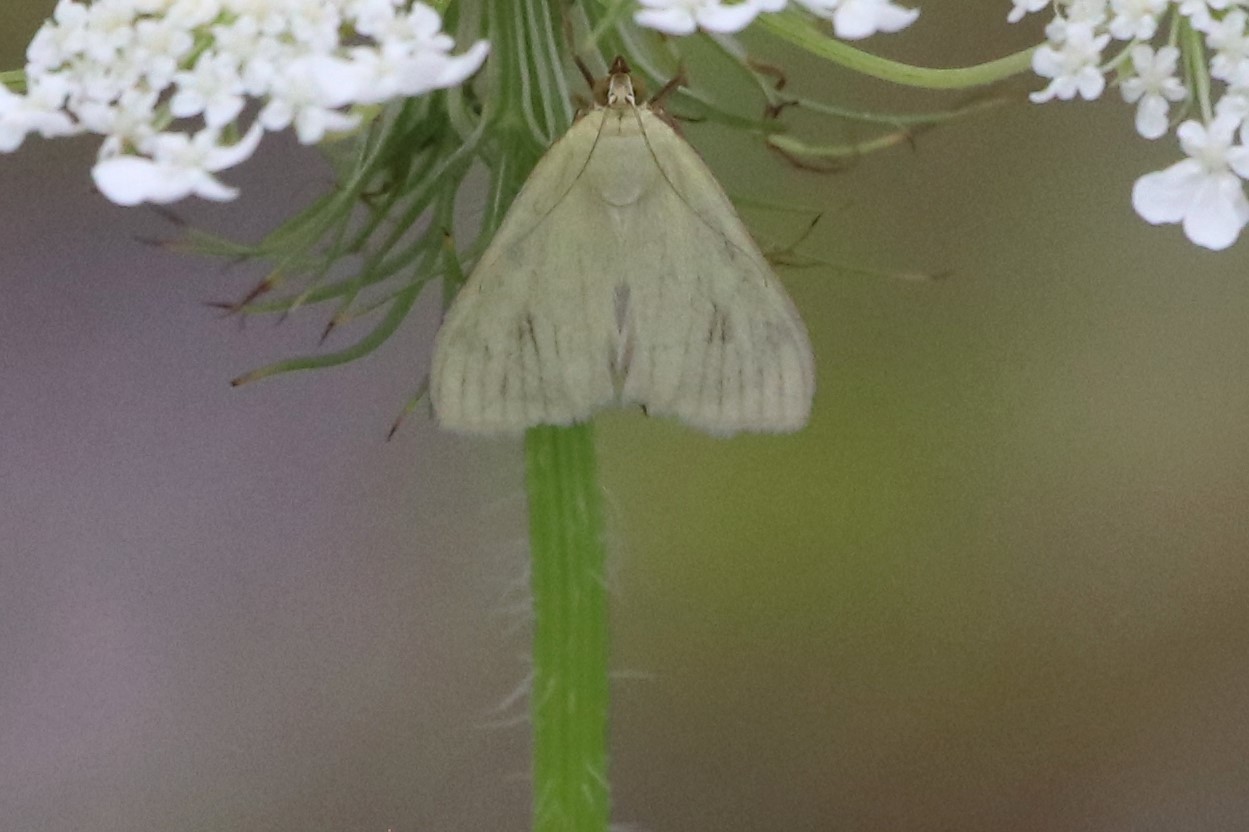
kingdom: Animalia
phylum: Arthropoda
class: Insecta
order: Lepidoptera
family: Crambidae
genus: Sitochroa
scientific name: Sitochroa palealis
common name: Greenish-yellow sitochroa moth
